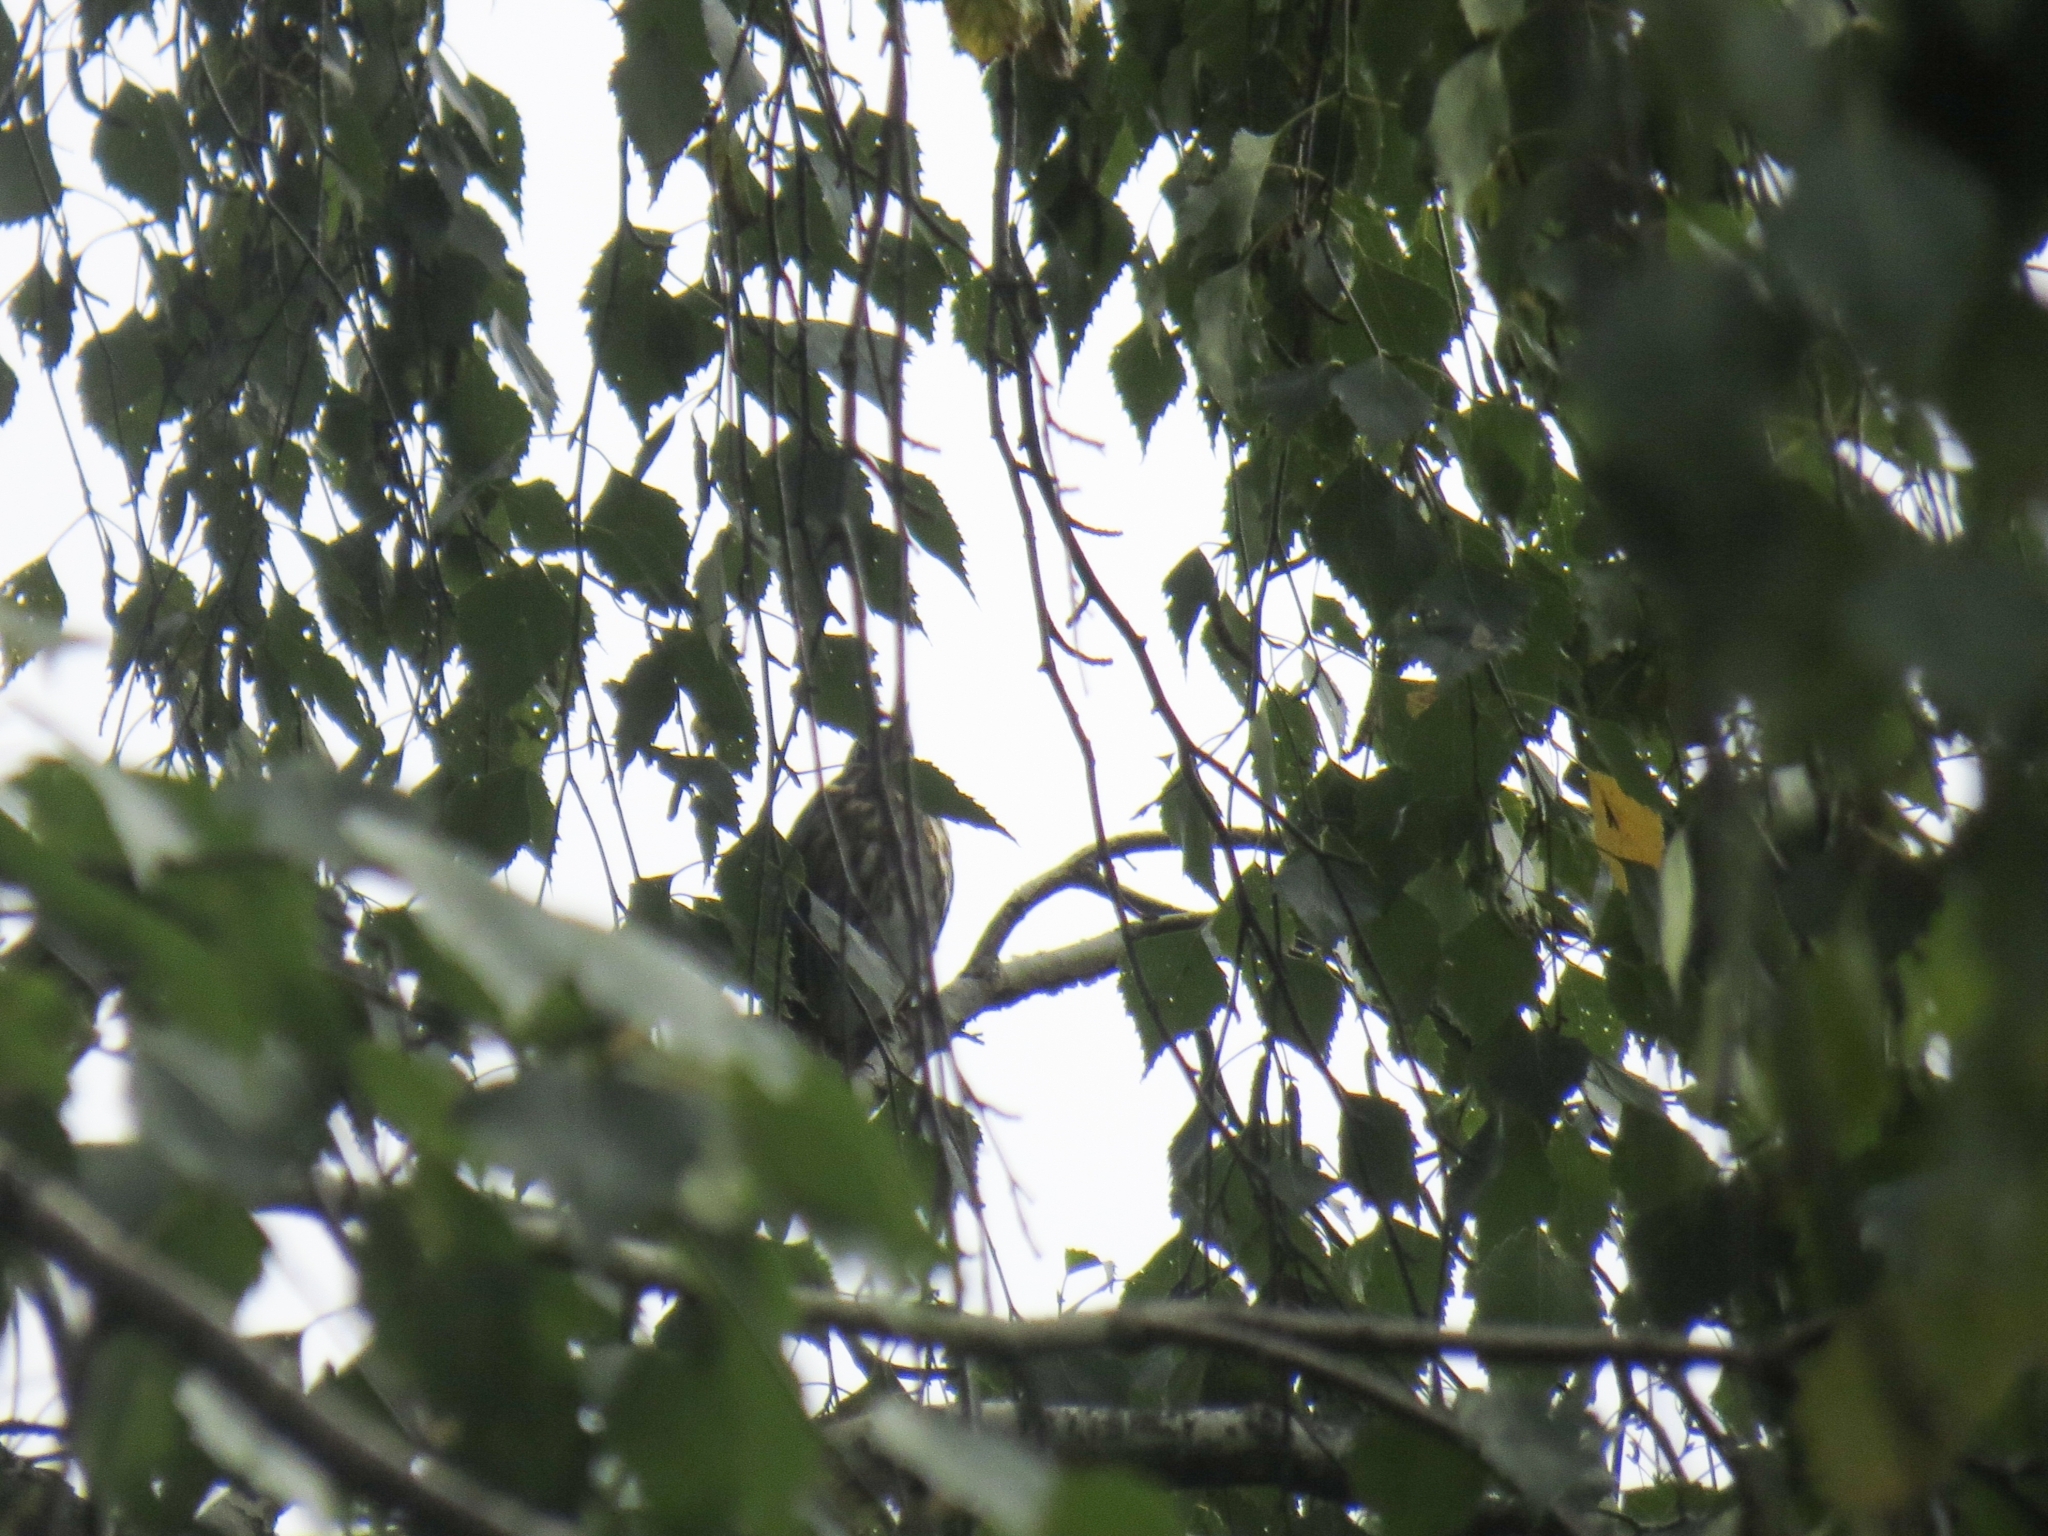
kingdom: Animalia
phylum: Chordata
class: Aves
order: Passeriformes
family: Turdidae
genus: Turdus
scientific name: Turdus iliacus
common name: Redwing
